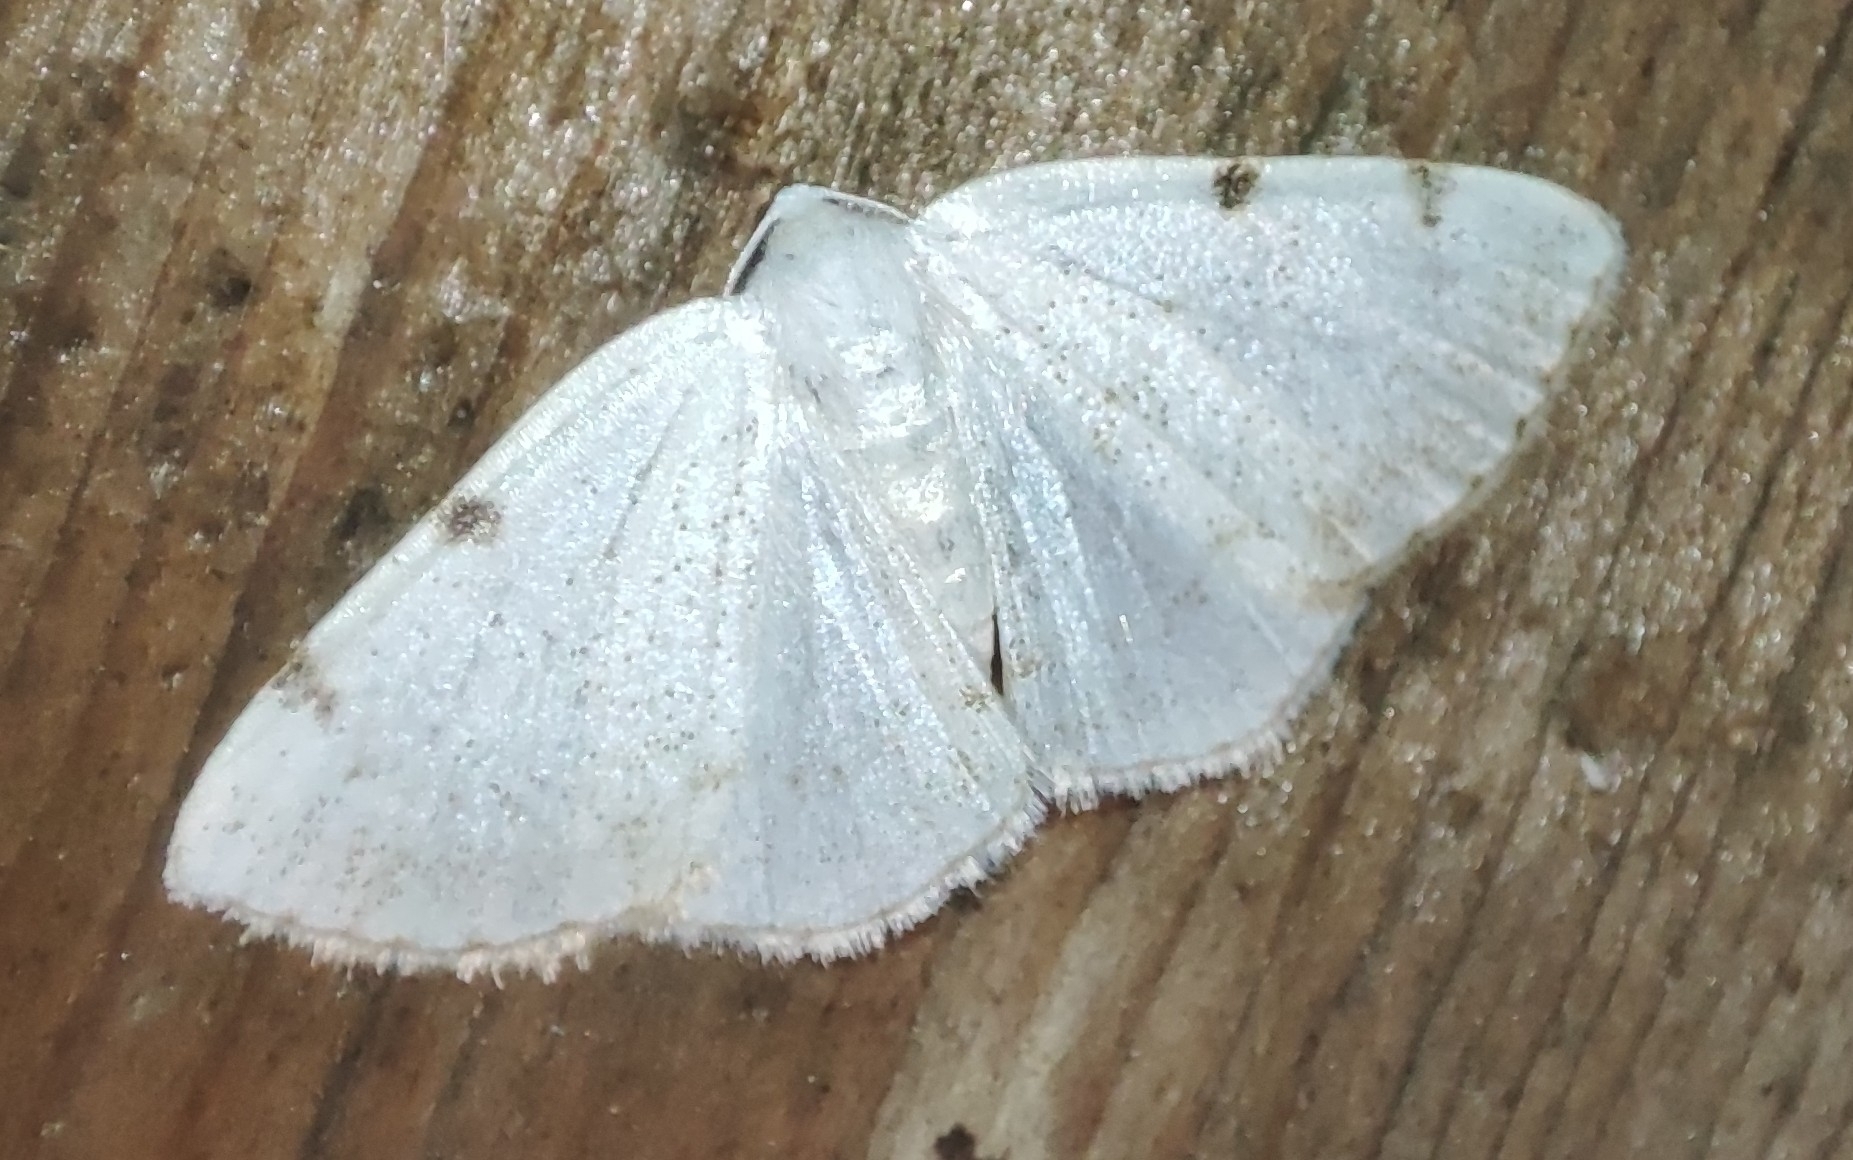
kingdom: Animalia
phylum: Arthropoda
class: Insecta
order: Lepidoptera
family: Geometridae
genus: Lomographa
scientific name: Lomographa bimaculata
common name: White-pinion spotted
